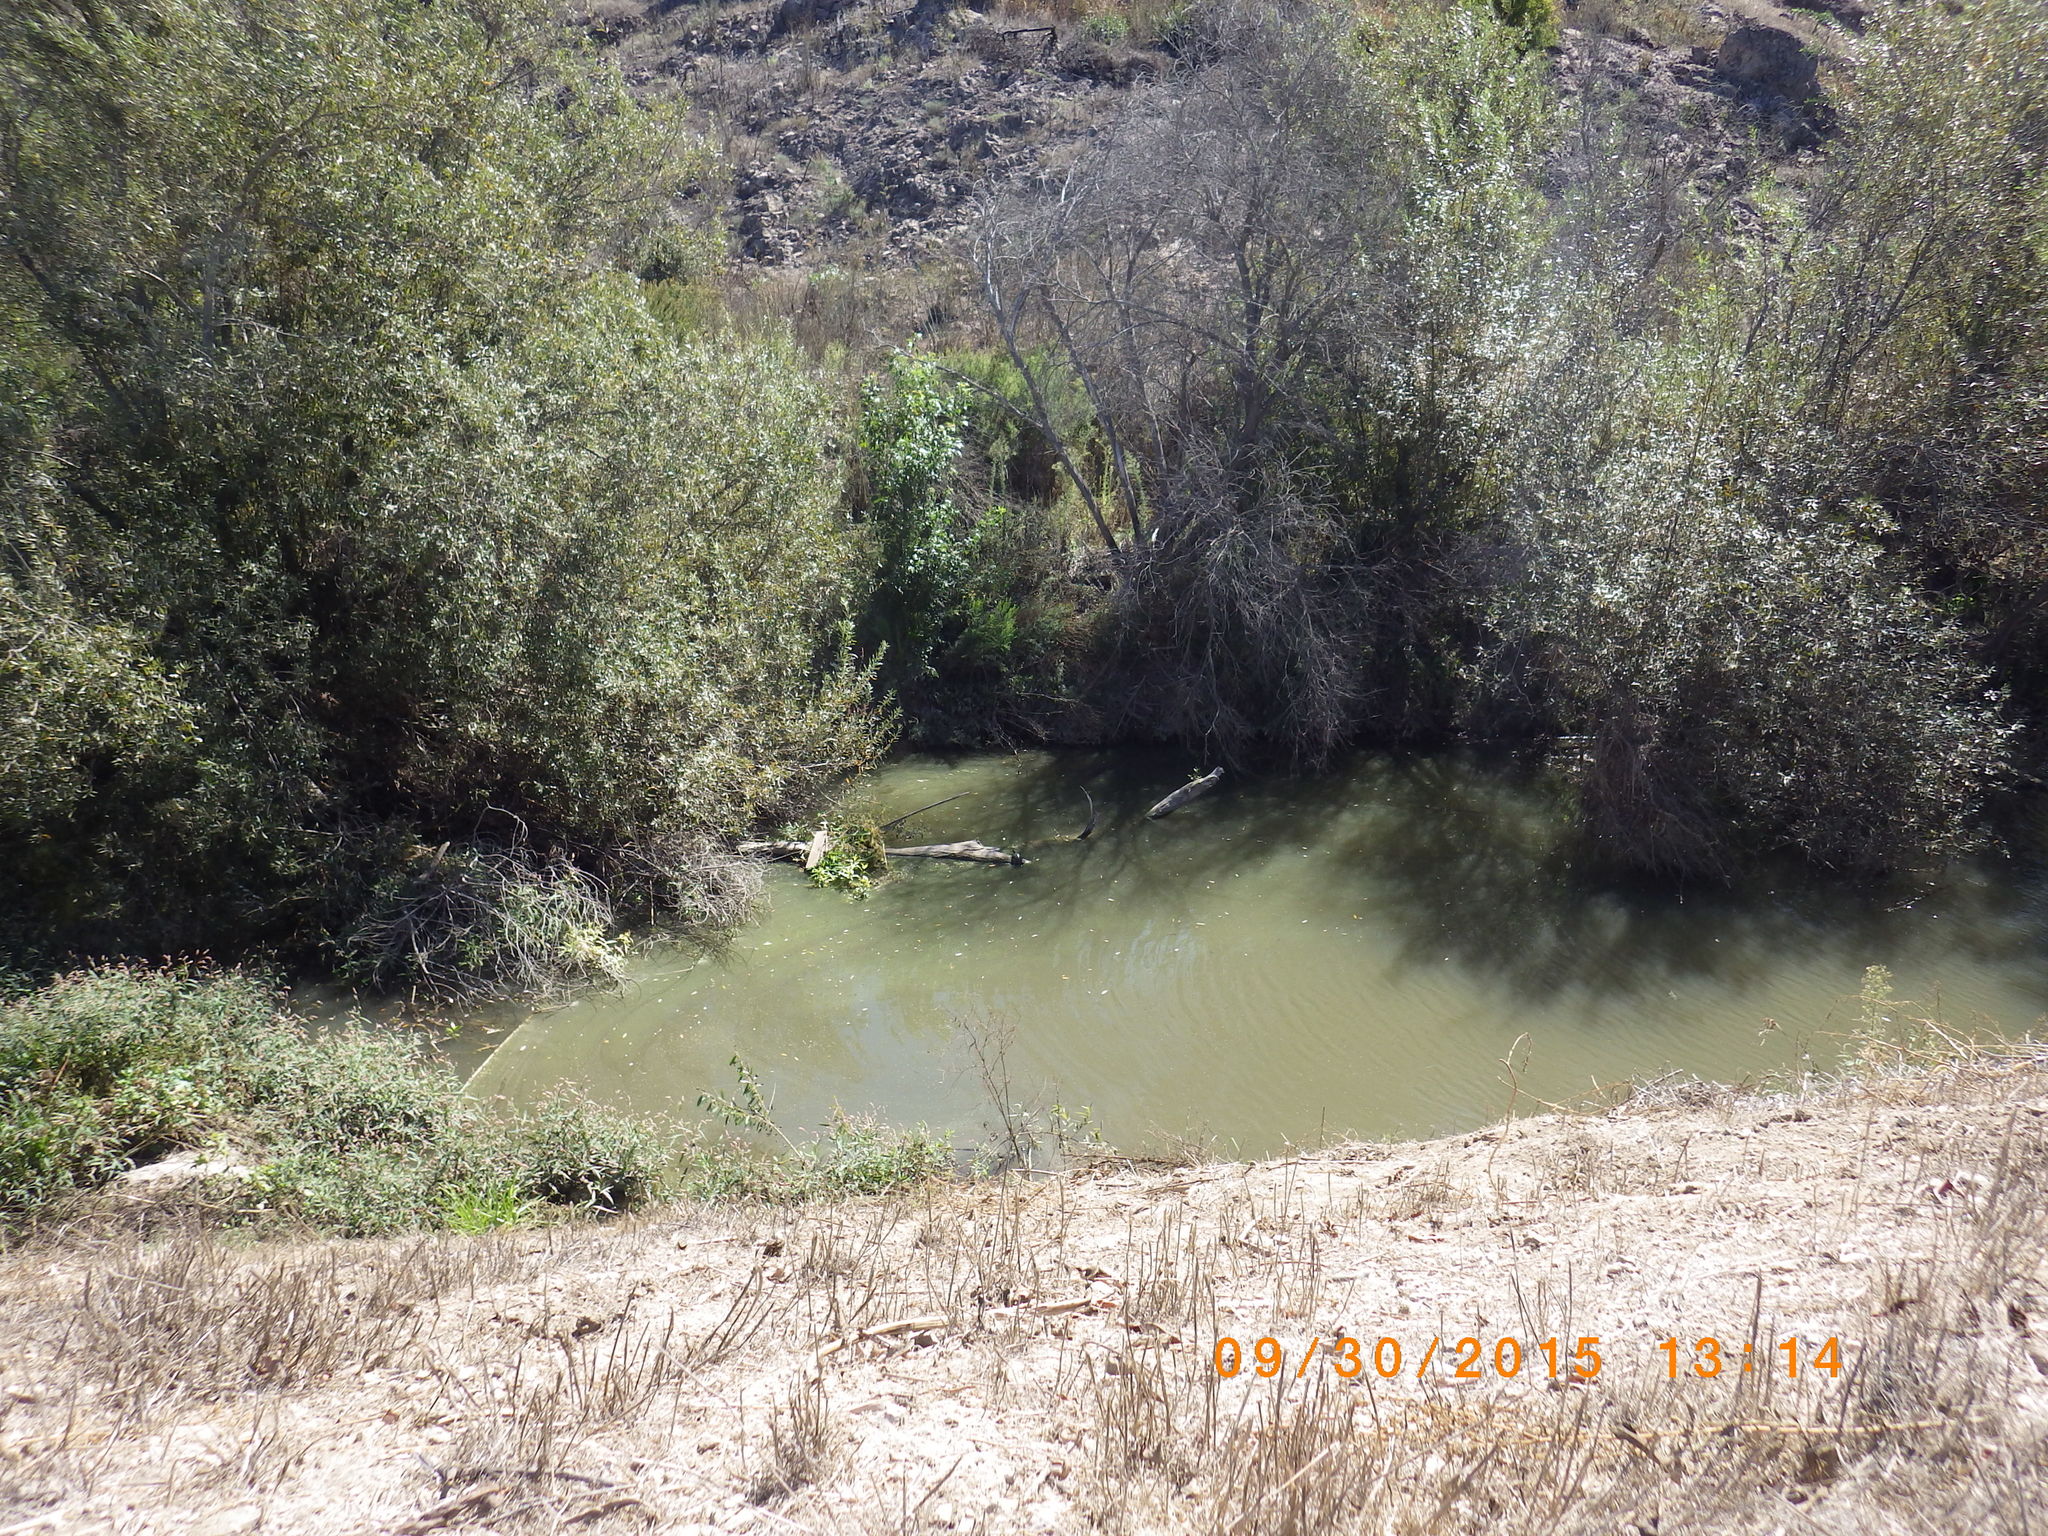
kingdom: Animalia
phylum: Chordata
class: Testudines
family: Emydidae
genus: Actinemys
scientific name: Actinemys marmorata
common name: Western pond turtle
